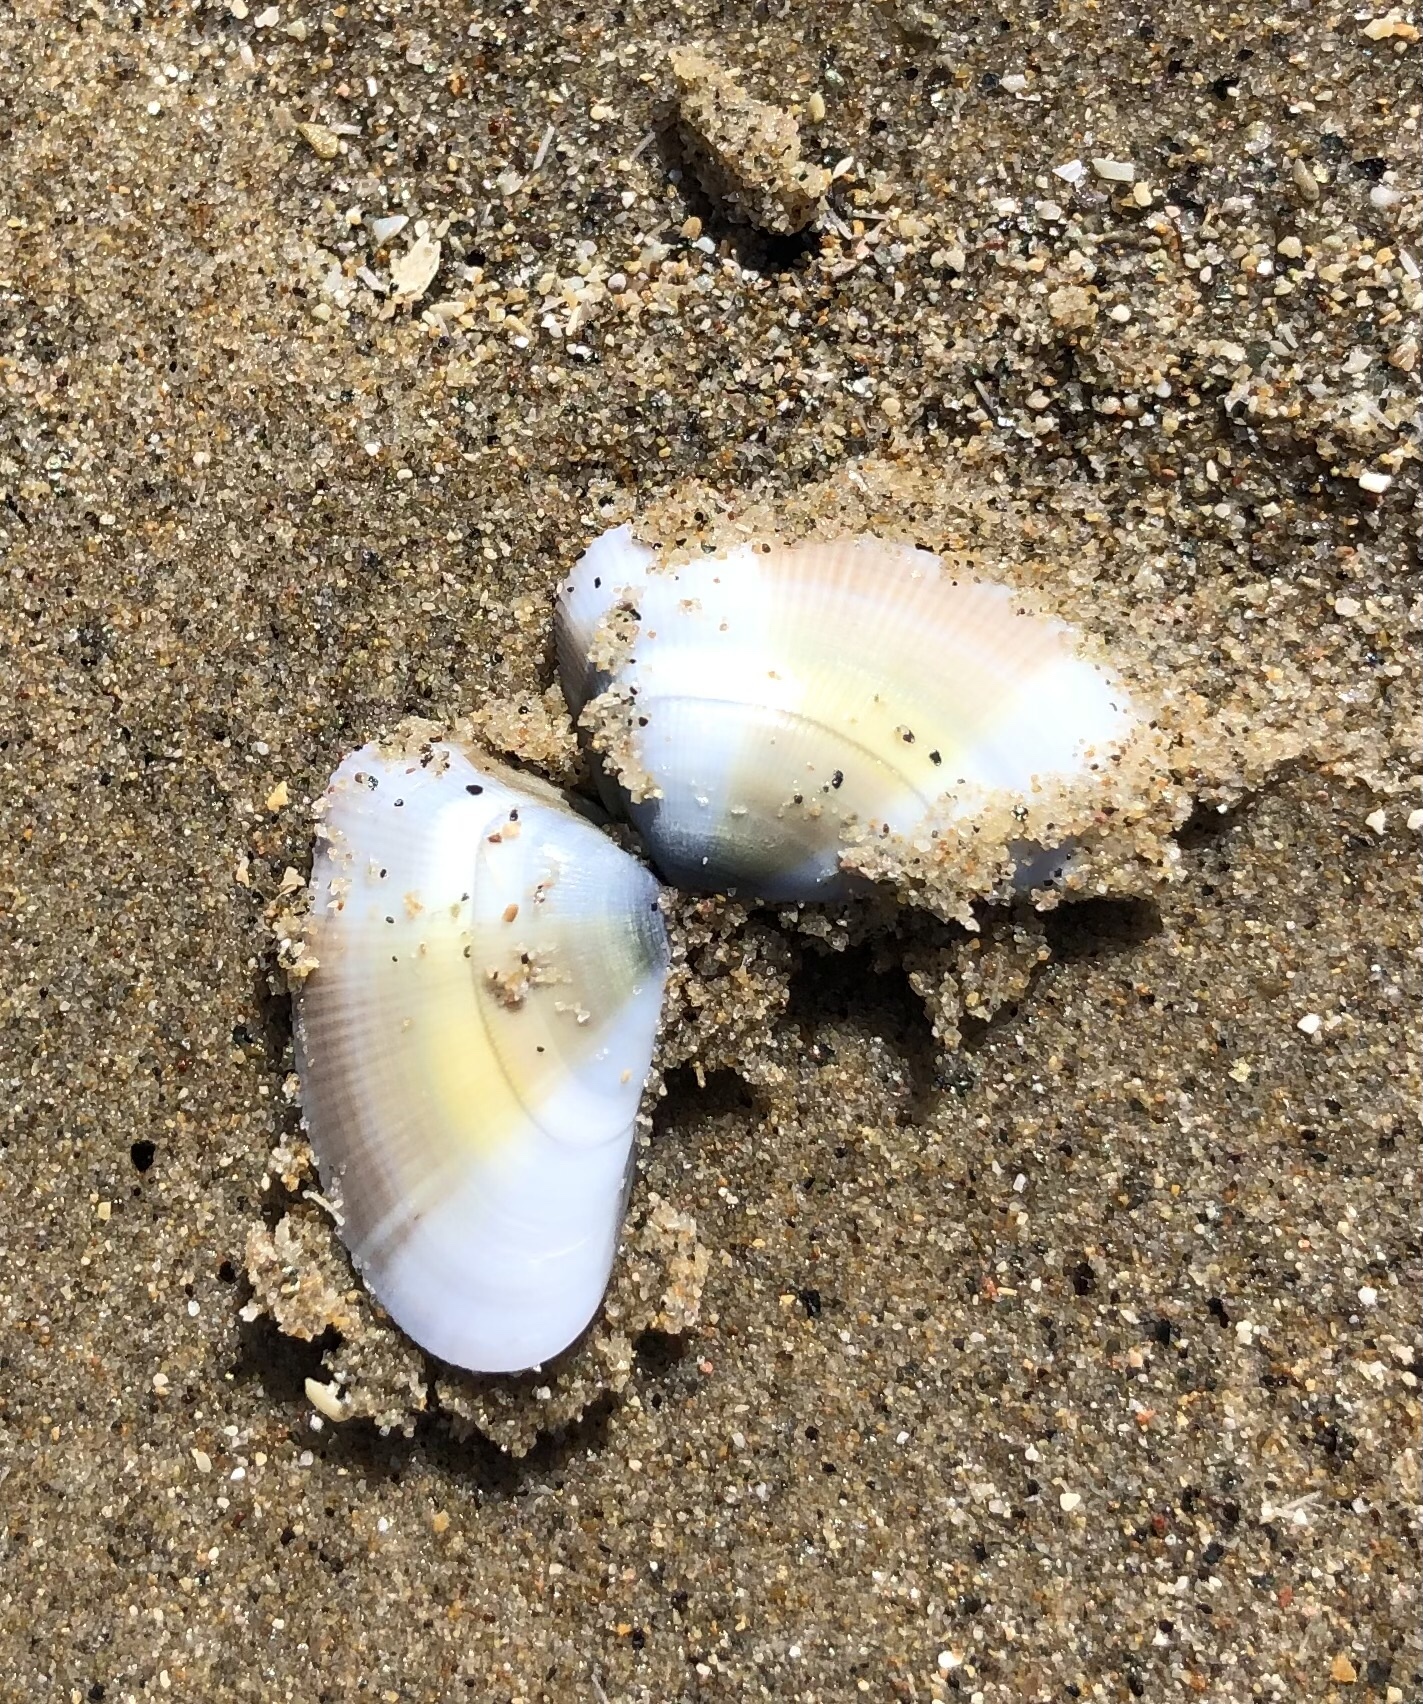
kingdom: Animalia
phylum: Mollusca
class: Bivalvia
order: Cardiida
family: Donacidae
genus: Donax
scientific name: Donax gouldii
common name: Gould beanclam
